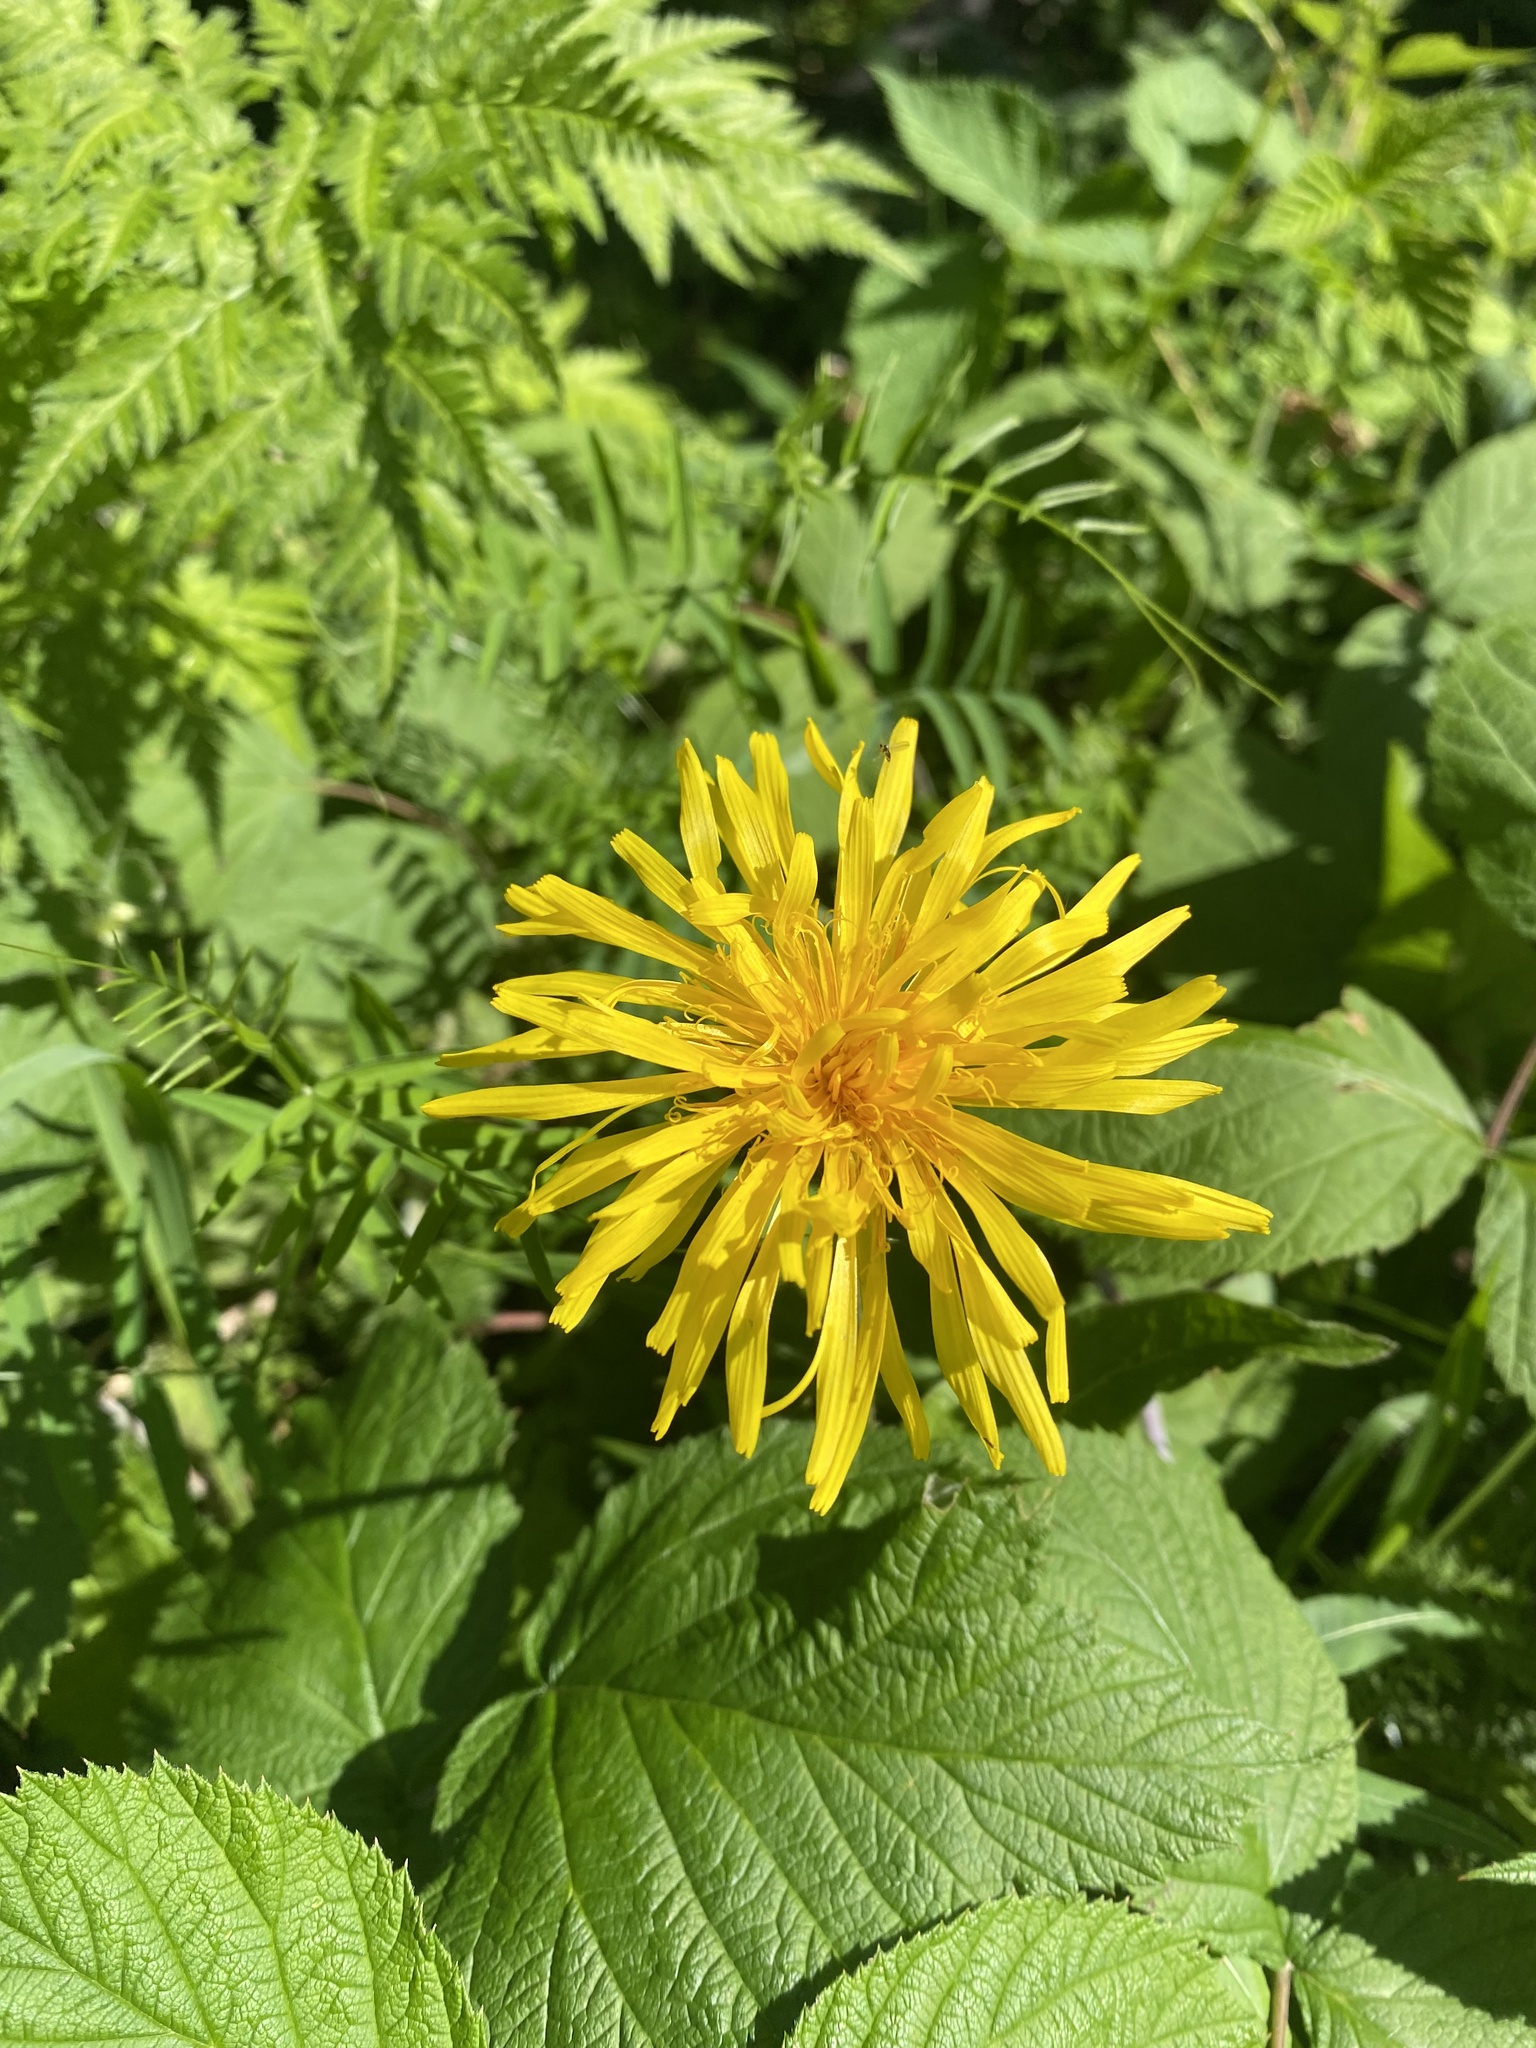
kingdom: Plantae
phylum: Tracheophyta
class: Magnoliopsida
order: Asterales
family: Asteraceae
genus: Crepis
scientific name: Crepis sibirica
